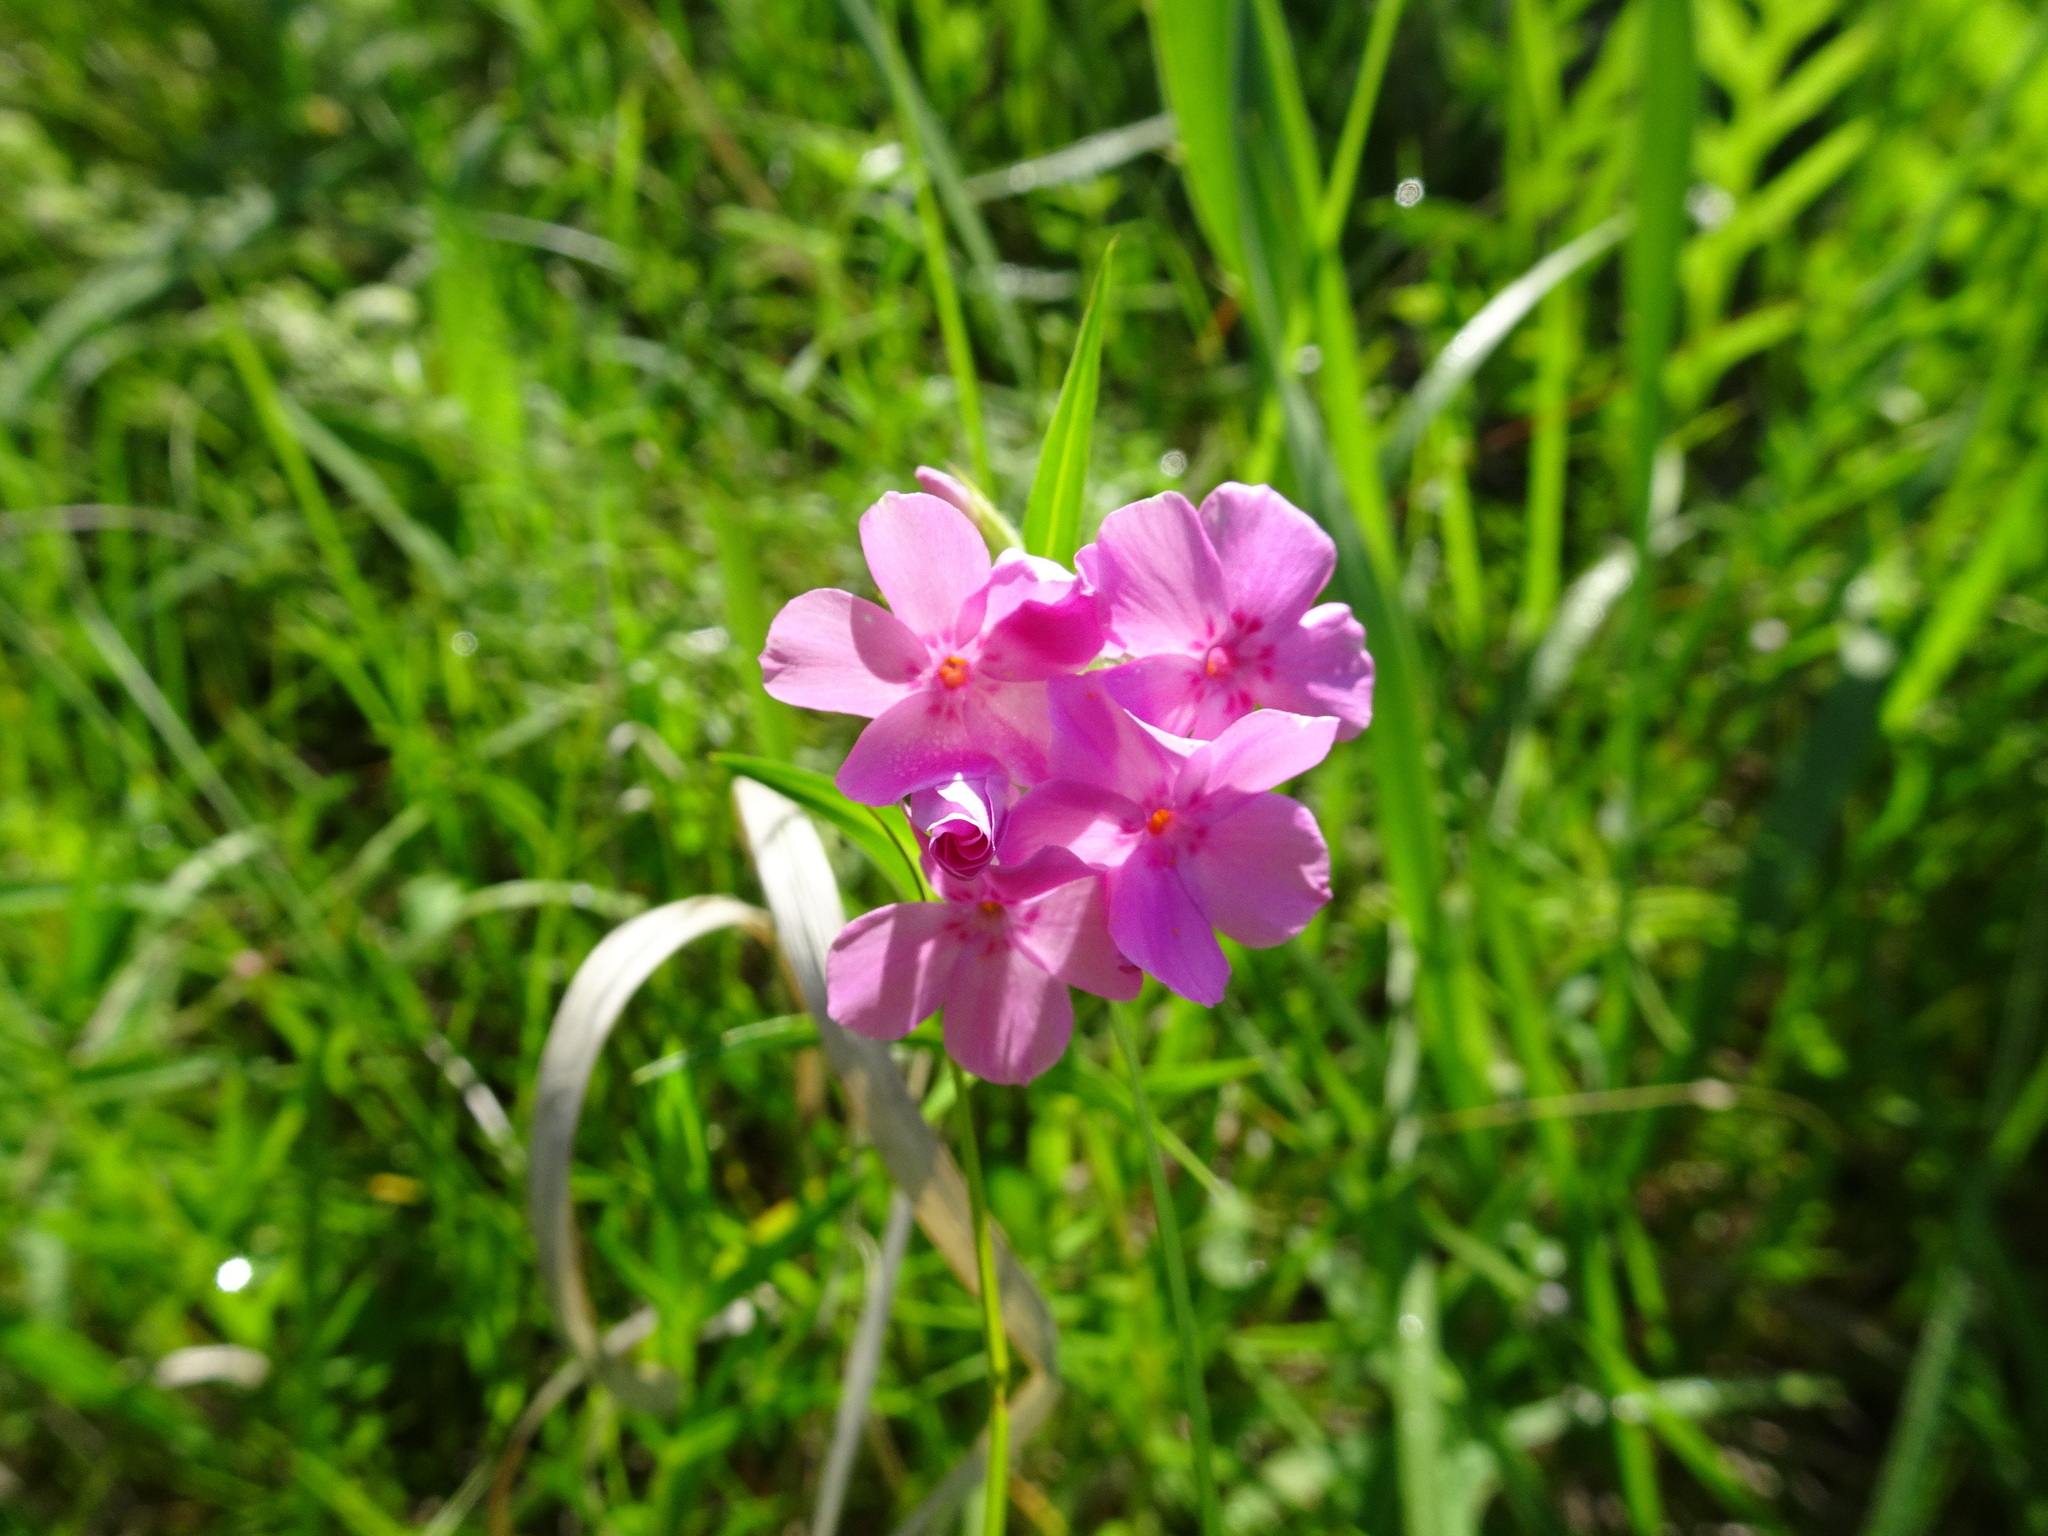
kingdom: Plantae
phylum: Tracheophyta
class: Magnoliopsida
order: Ericales
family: Polemoniaceae
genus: Phlox
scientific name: Phlox pilosa
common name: Prairie phlox
